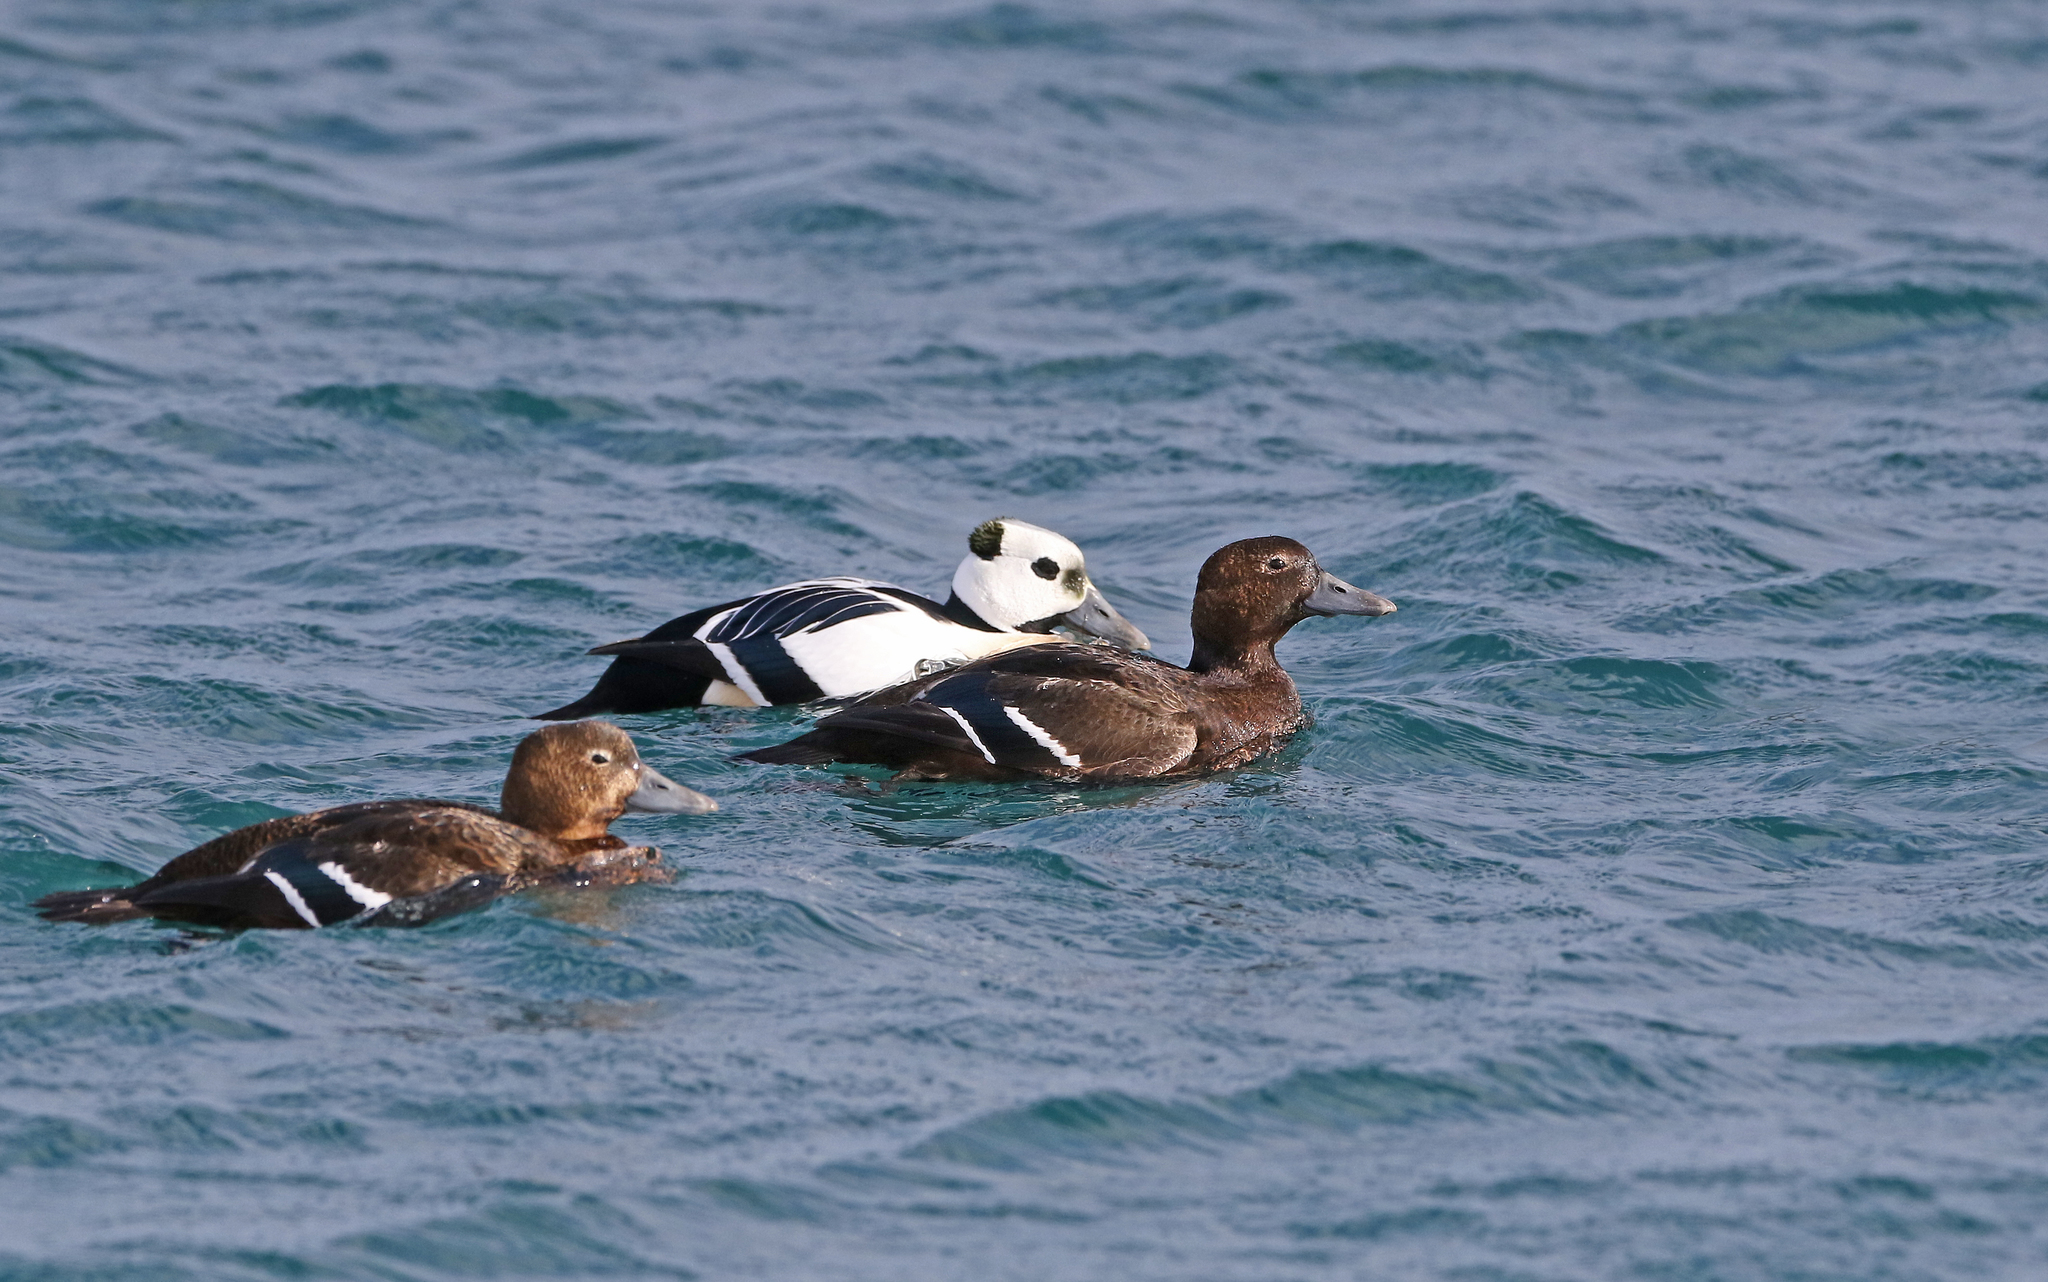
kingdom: Animalia
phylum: Chordata
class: Aves
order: Anseriformes
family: Anatidae
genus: Polysticta
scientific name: Polysticta stelleri
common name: Steller's eider
